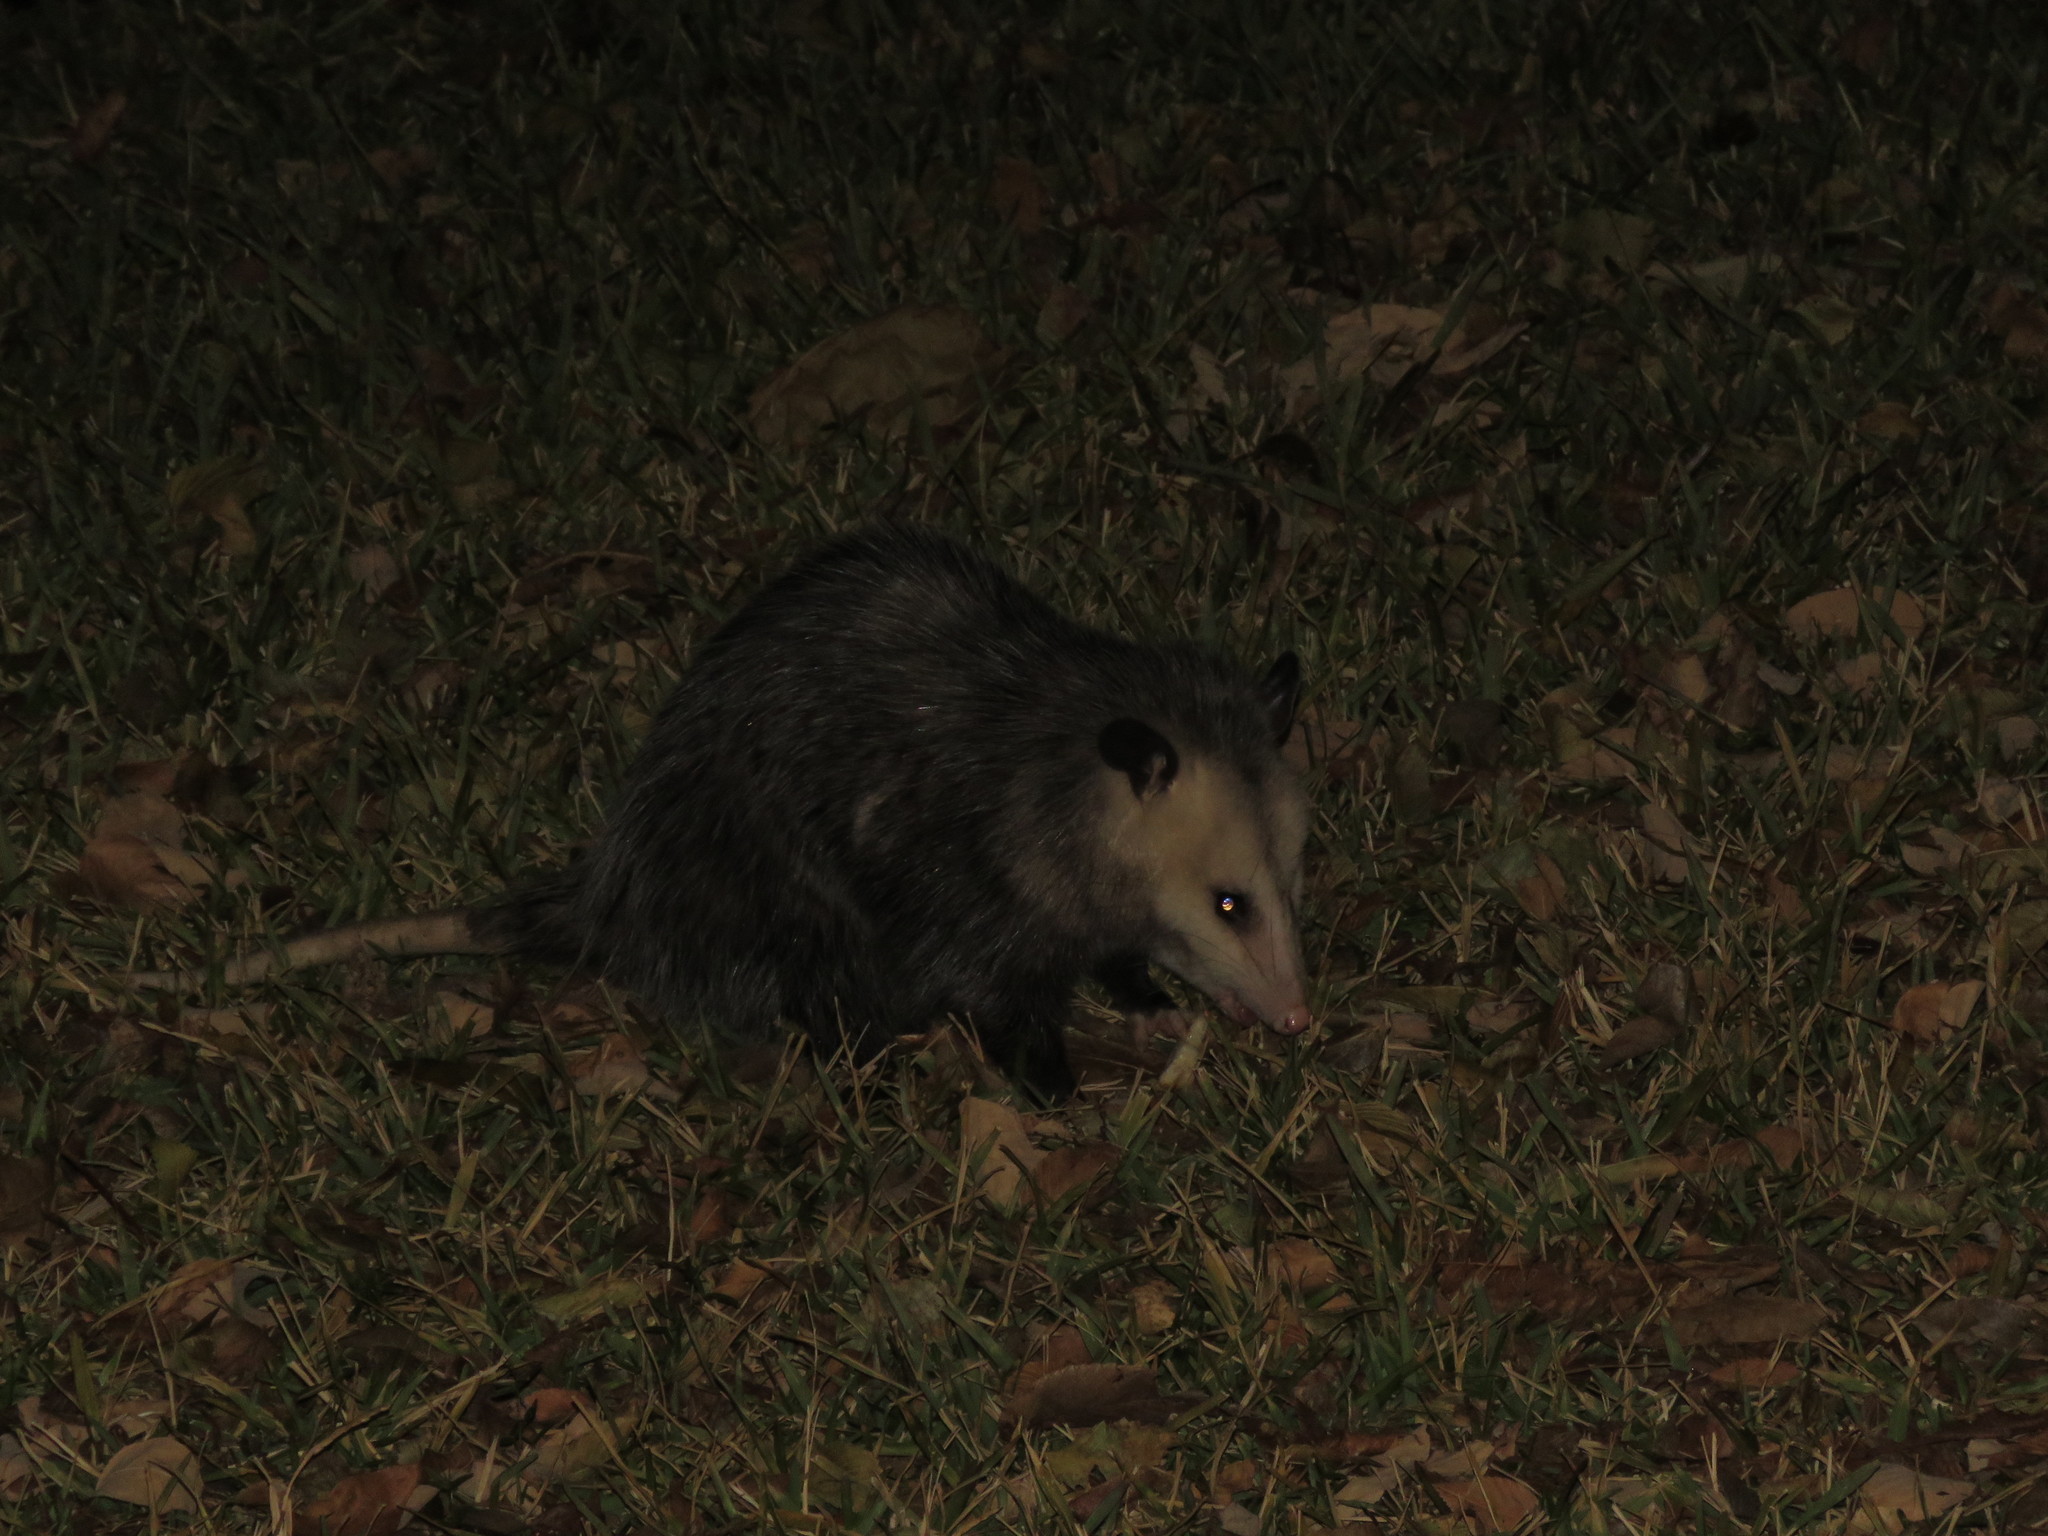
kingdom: Animalia
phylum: Chordata
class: Mammalia
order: Didelphimorphia
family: Didelphidae
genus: Didelphis
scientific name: Didelphis virginiana
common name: Virginia opossum
